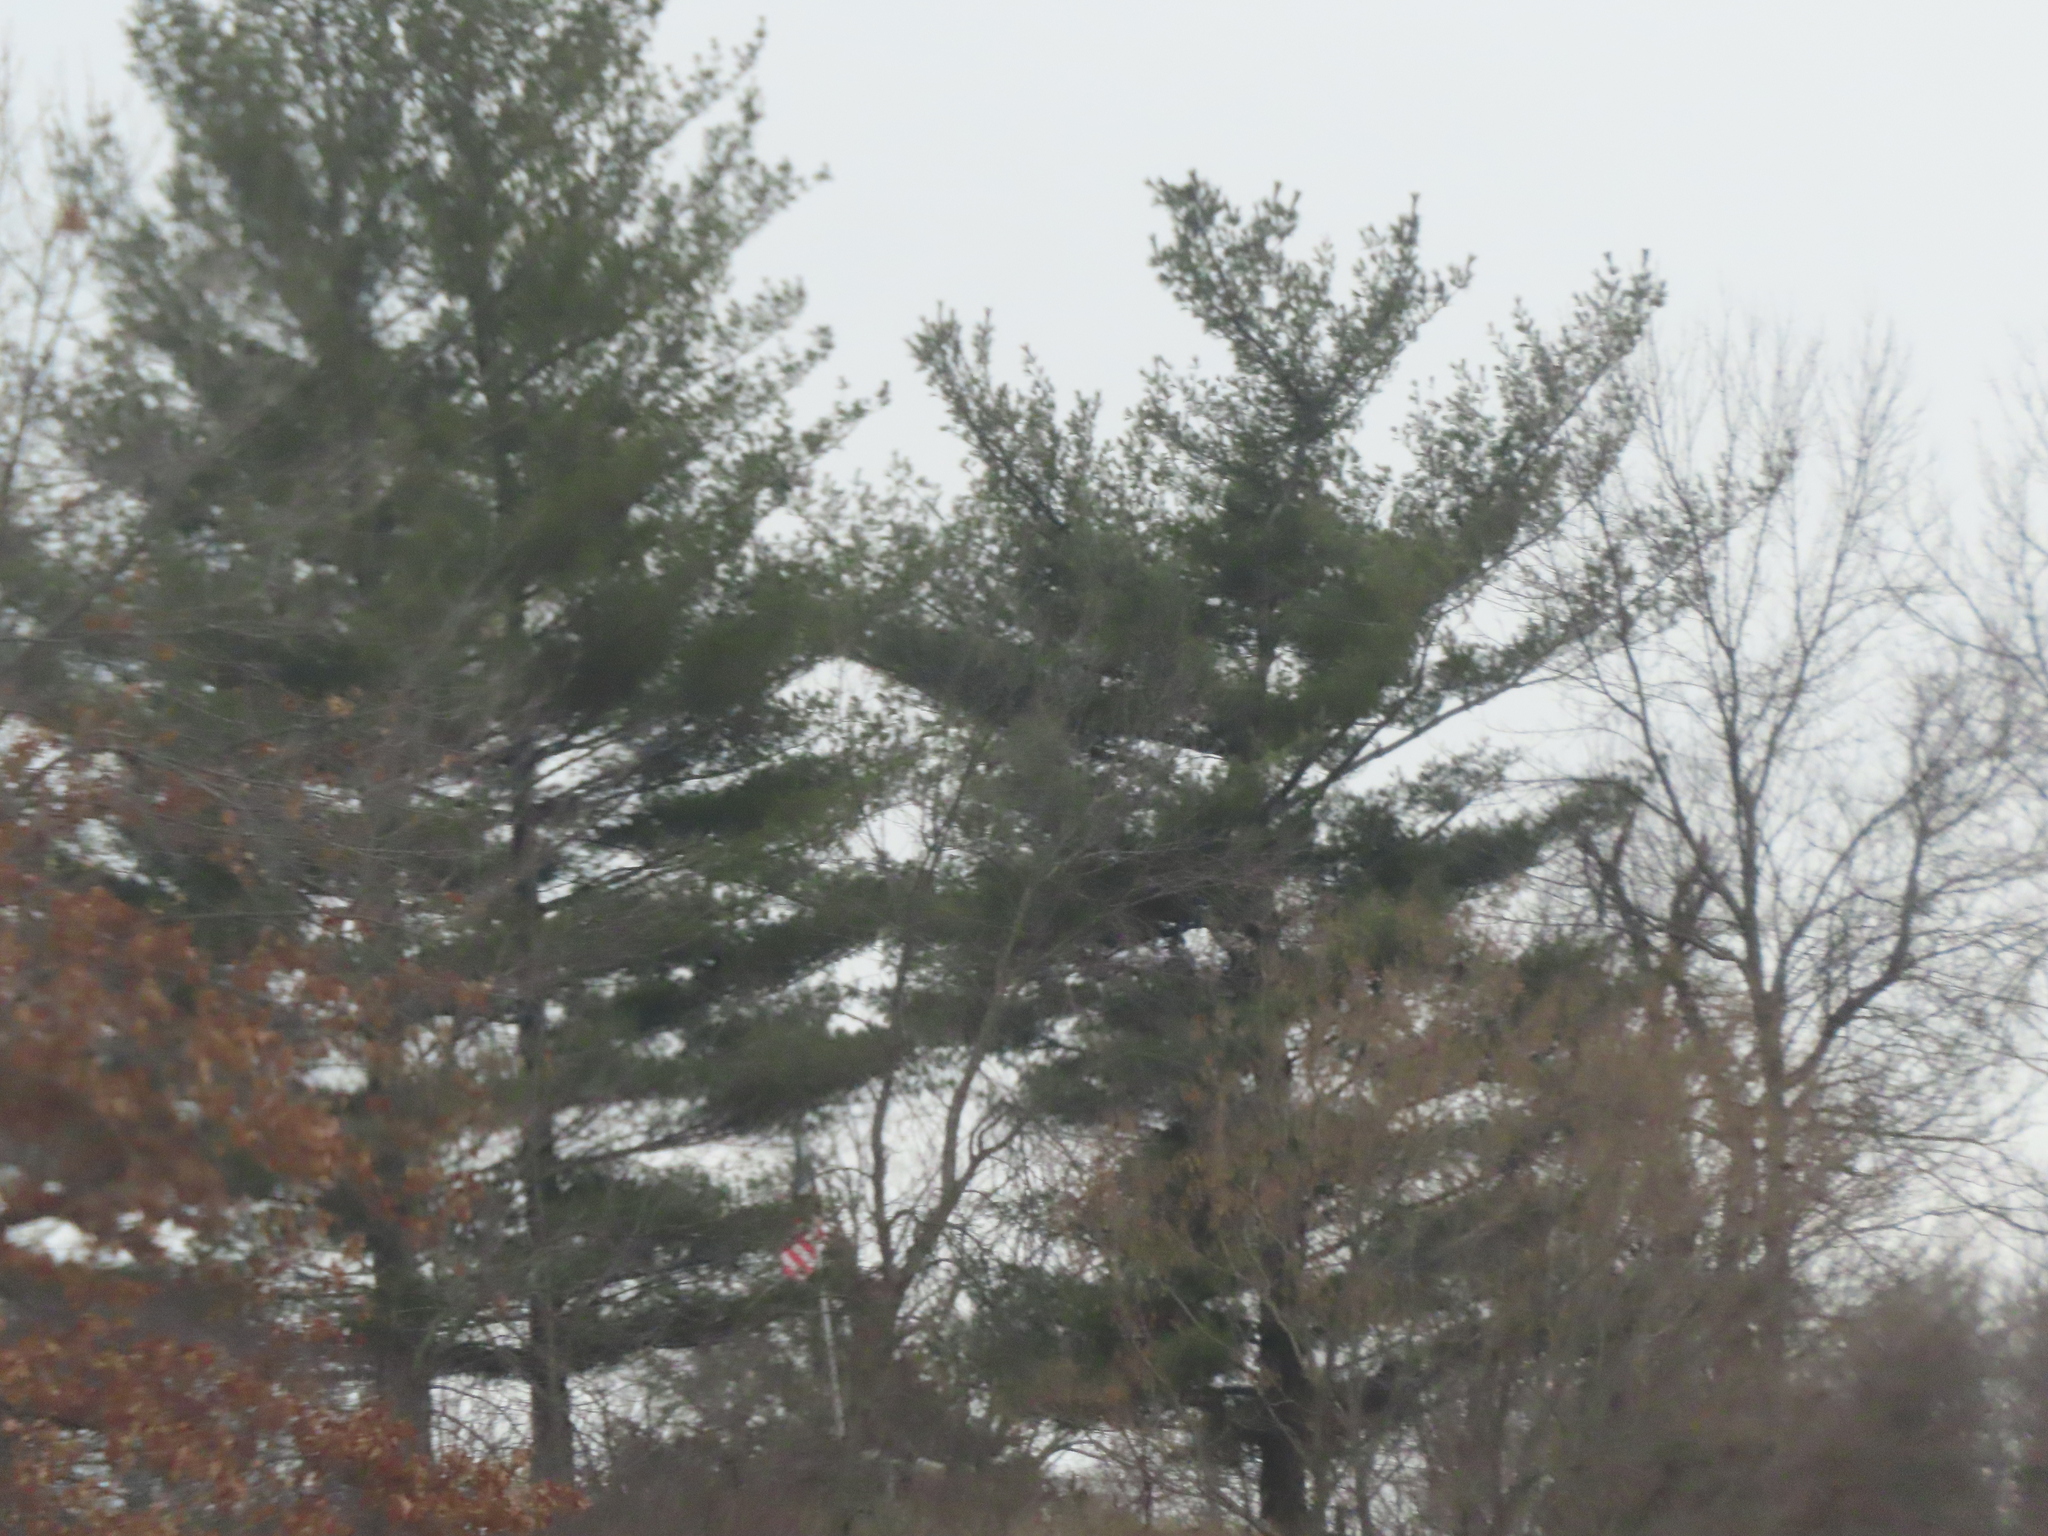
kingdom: Plantae
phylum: Tracheophyta
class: Pinopsida
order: Pinales
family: Pinaceae
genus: Pinus
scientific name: Pinus strobus
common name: Weymouth pine
